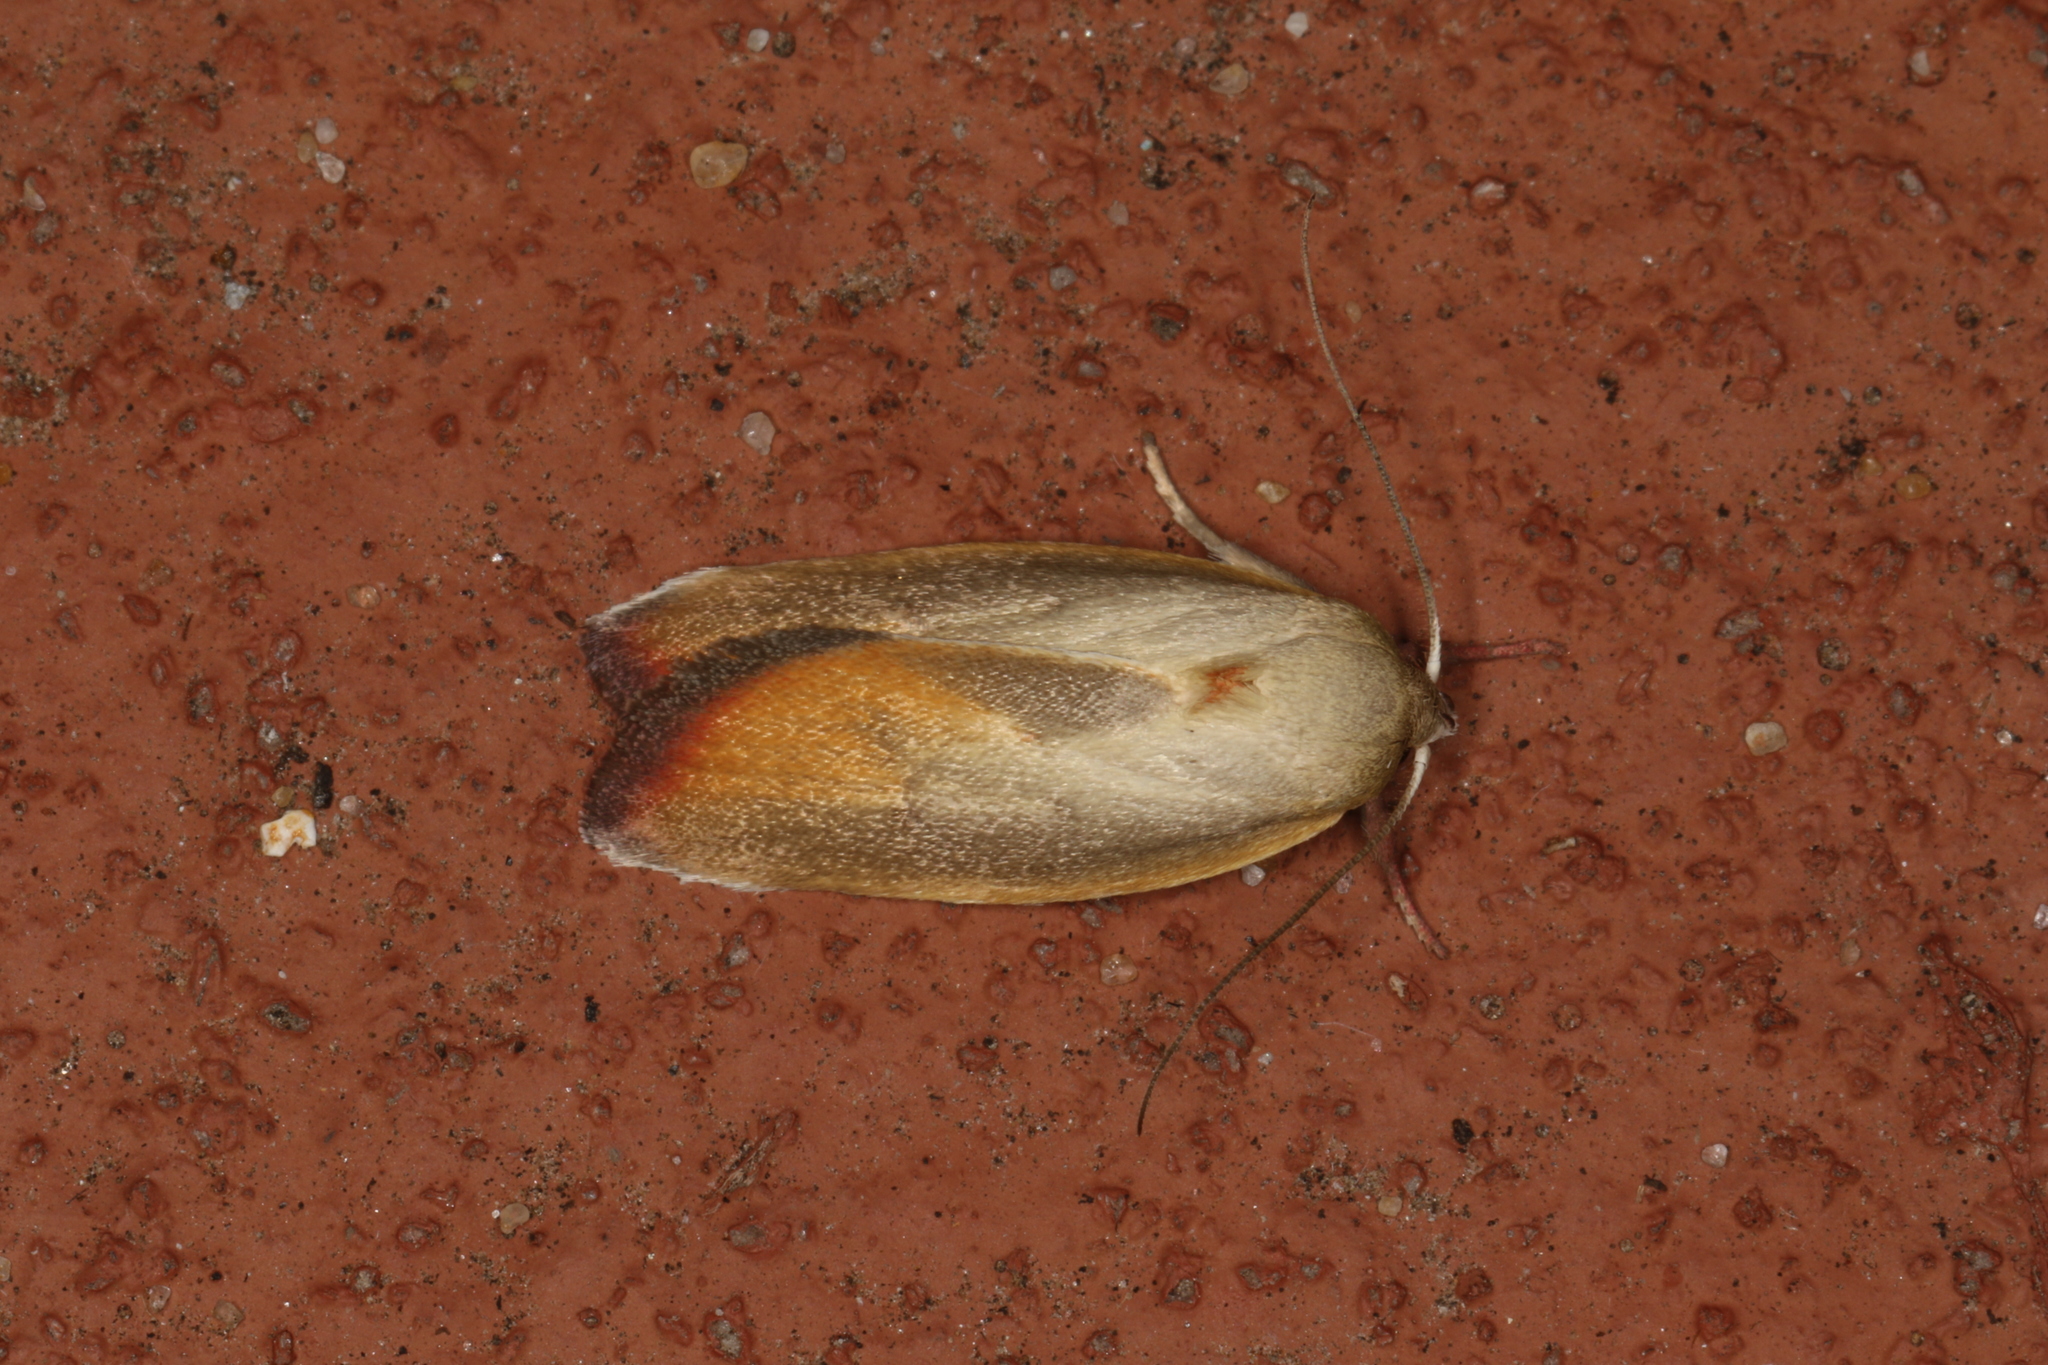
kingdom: Animalia
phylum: Arthropoda
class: Insecta
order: Lepidoptera
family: Oecophoridae
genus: Ptyoptila
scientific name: Ptyoptila matutinella
